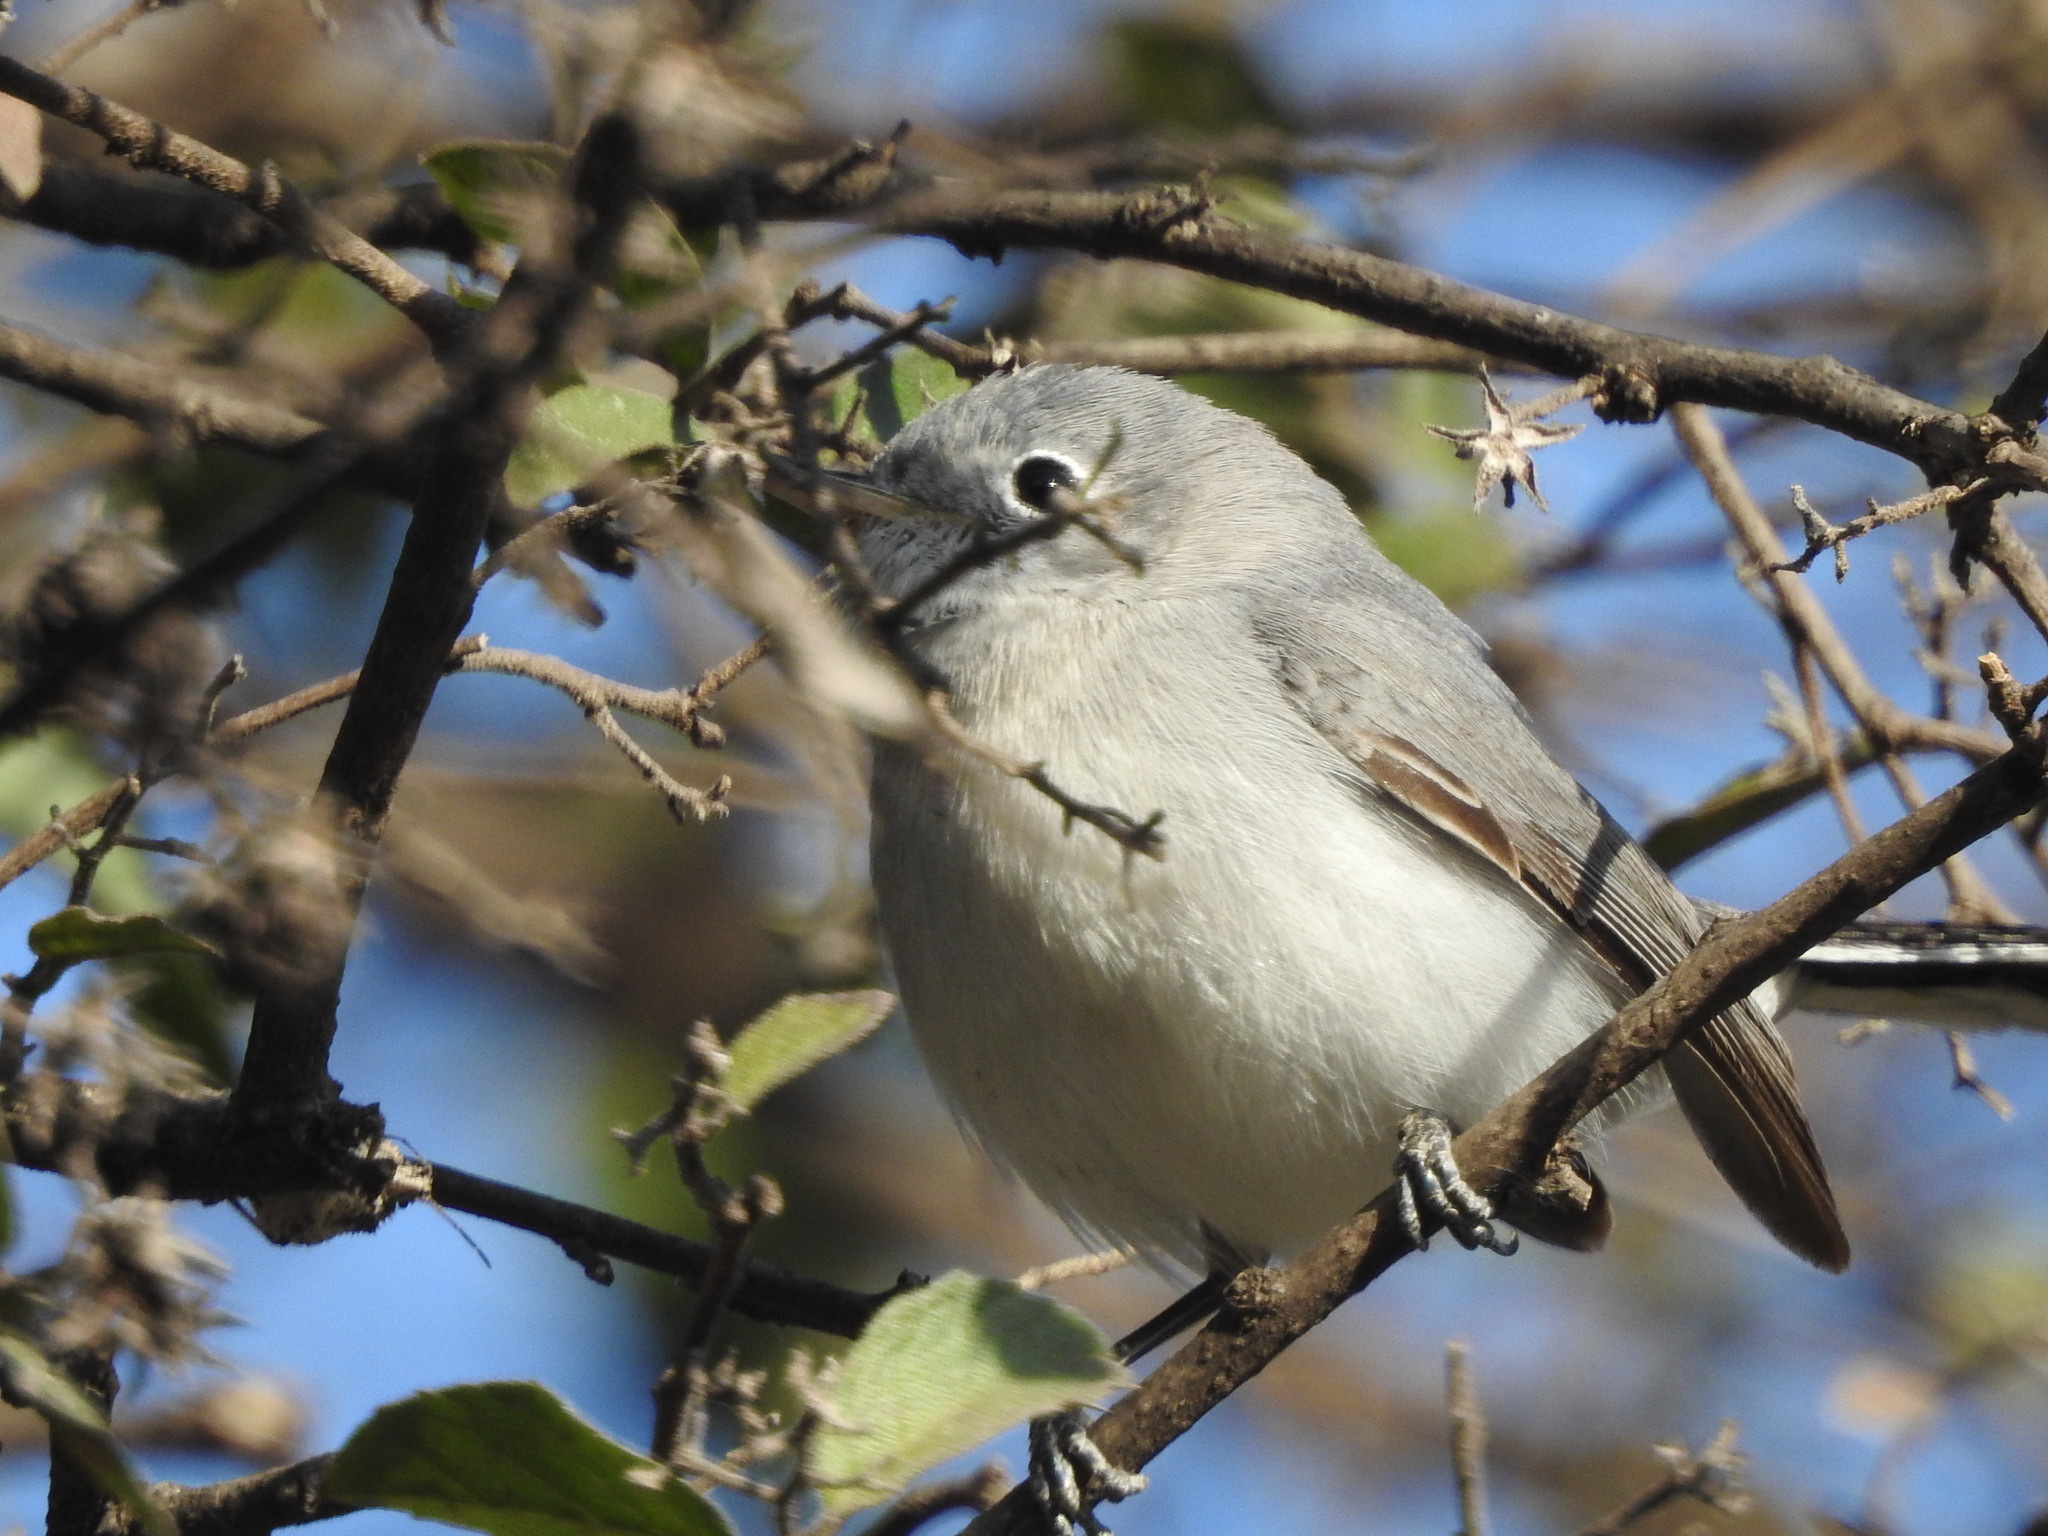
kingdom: Animalia
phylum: Chordata
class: Aves
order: Passeriformes
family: Polioptilidae
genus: Polioptila
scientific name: Polioptila caerulea
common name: Blue-gray gnatcatcher
